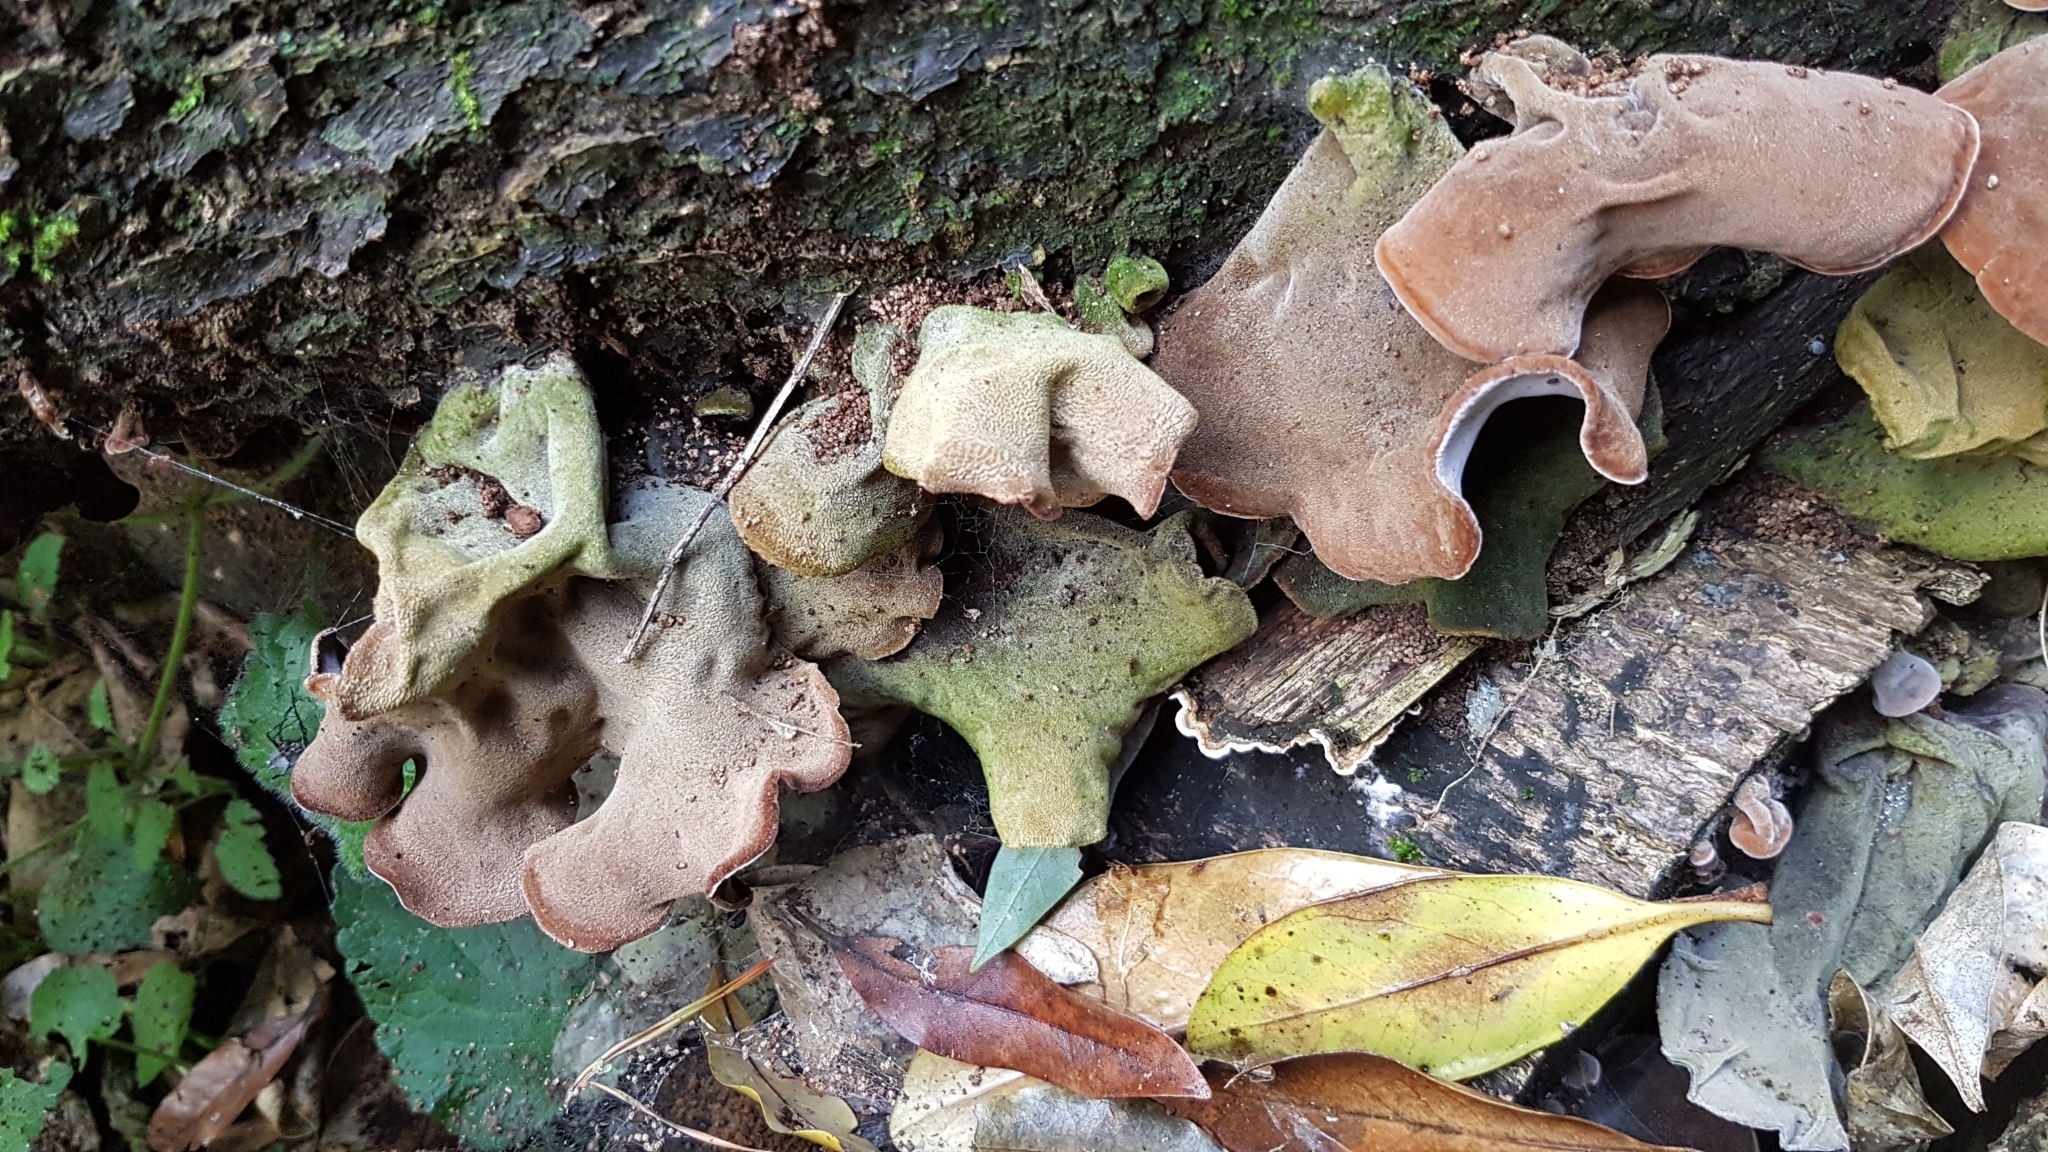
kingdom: Fungi
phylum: Basidiomycota
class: Agaricomycetes
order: Auriculariales
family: Auriculariaceae
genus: Auricularia
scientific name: Auricularia cornea
